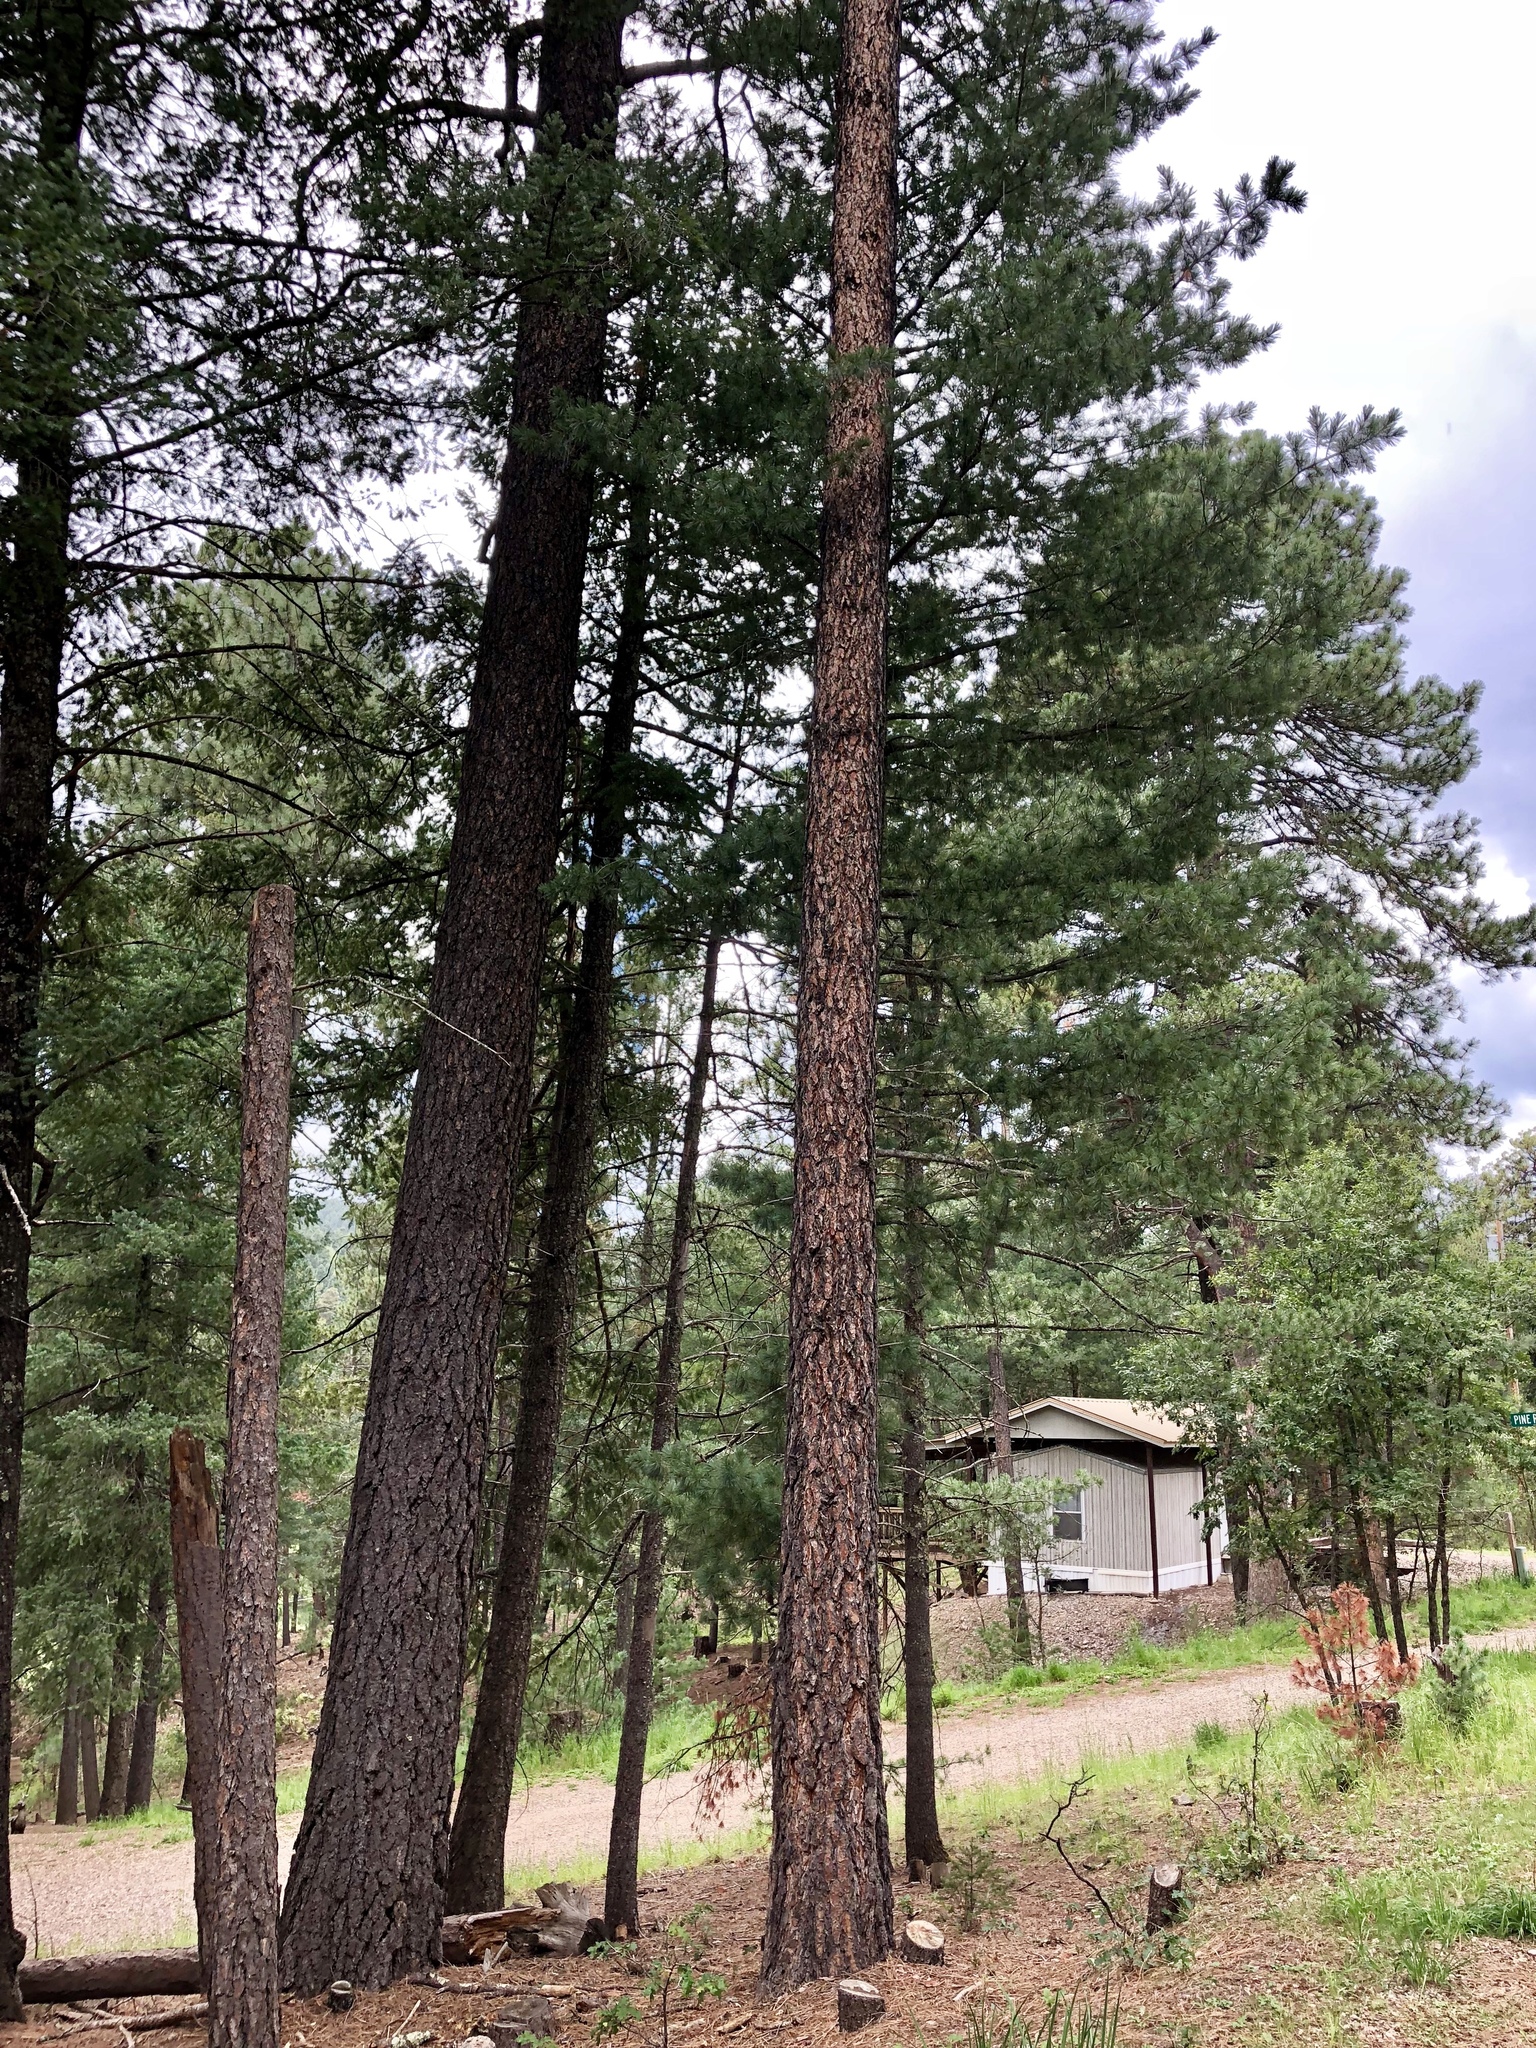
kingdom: Plantae
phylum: Tracheophyta
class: Pinopsida
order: Pinales
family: Pinaceae
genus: Pinus
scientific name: Pinus ponderosa
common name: Western yellow-pine
